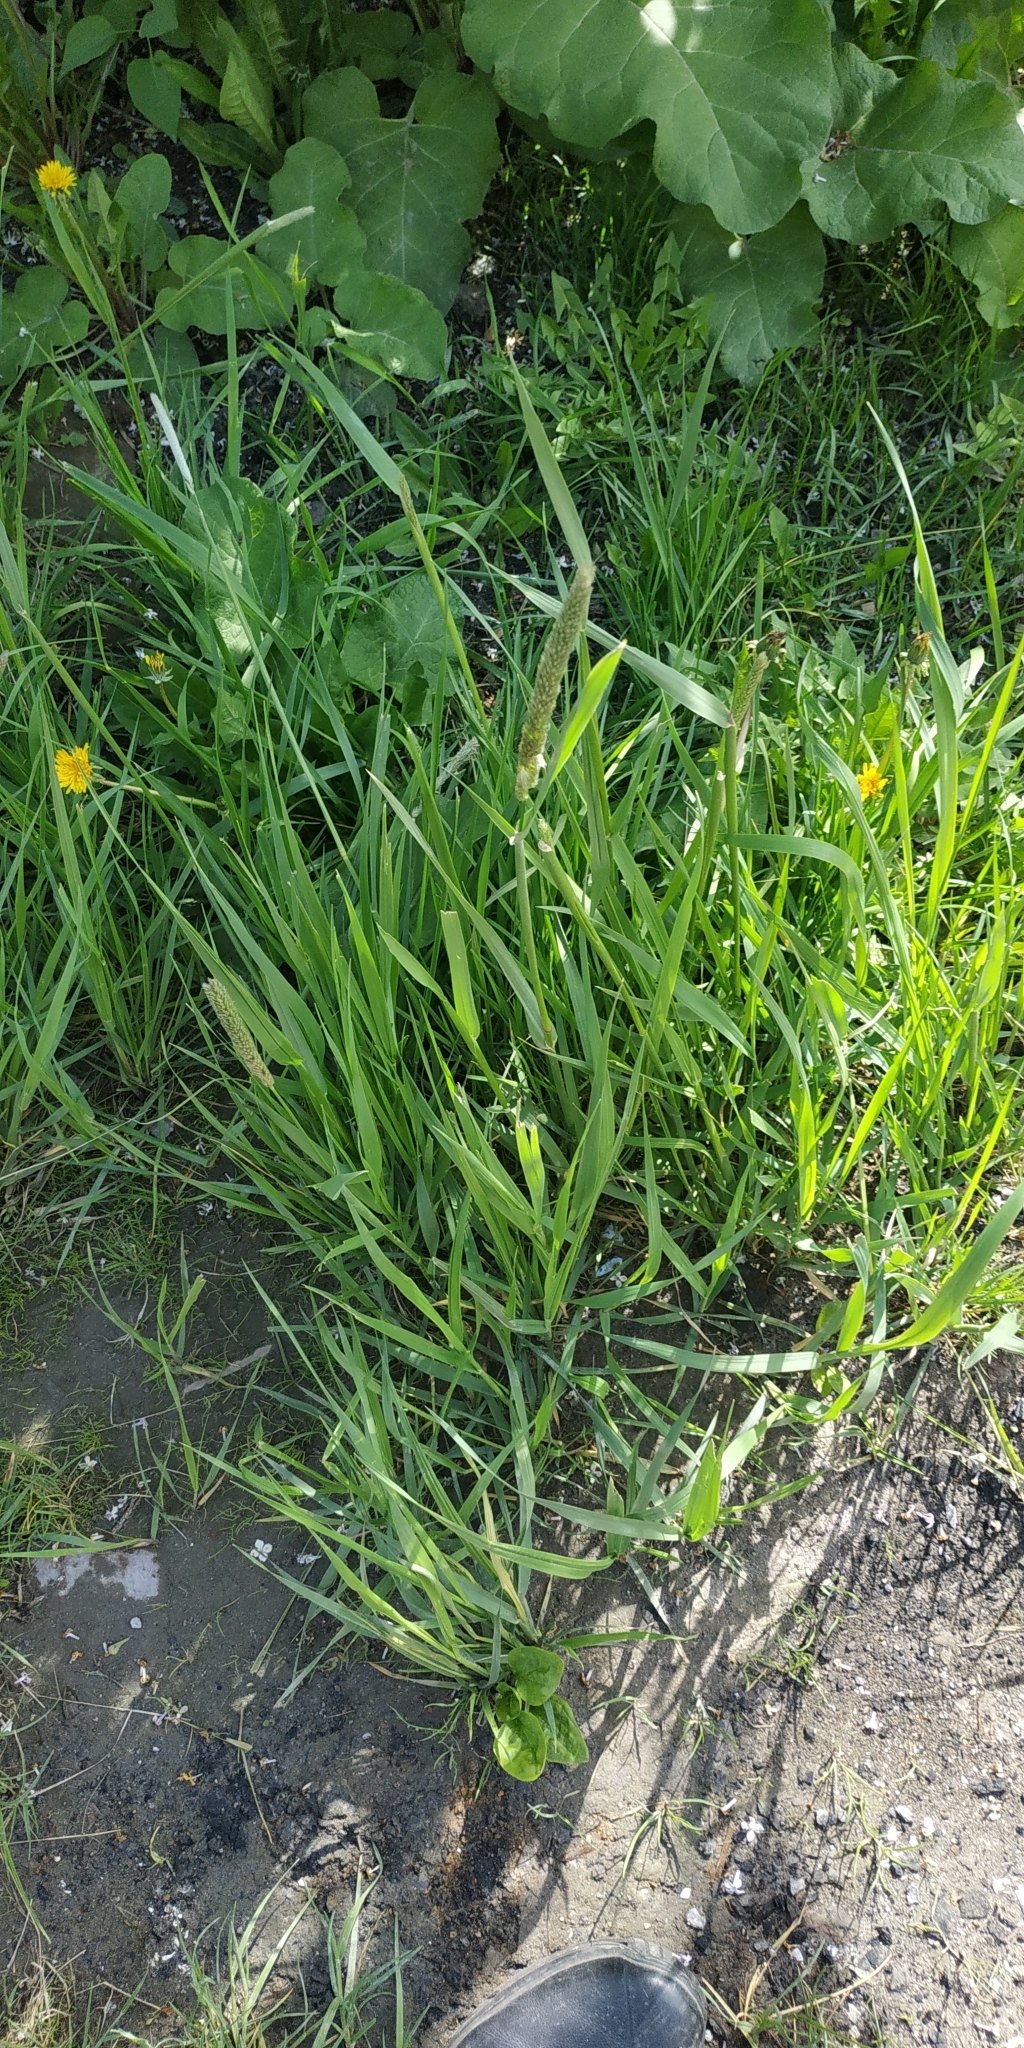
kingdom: Plantae
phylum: Tracheophyta
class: Liliopsida
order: Poales
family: Poaceae
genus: Alopecurus
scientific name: Alopecurus pratensis
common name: Meadow foxtail
